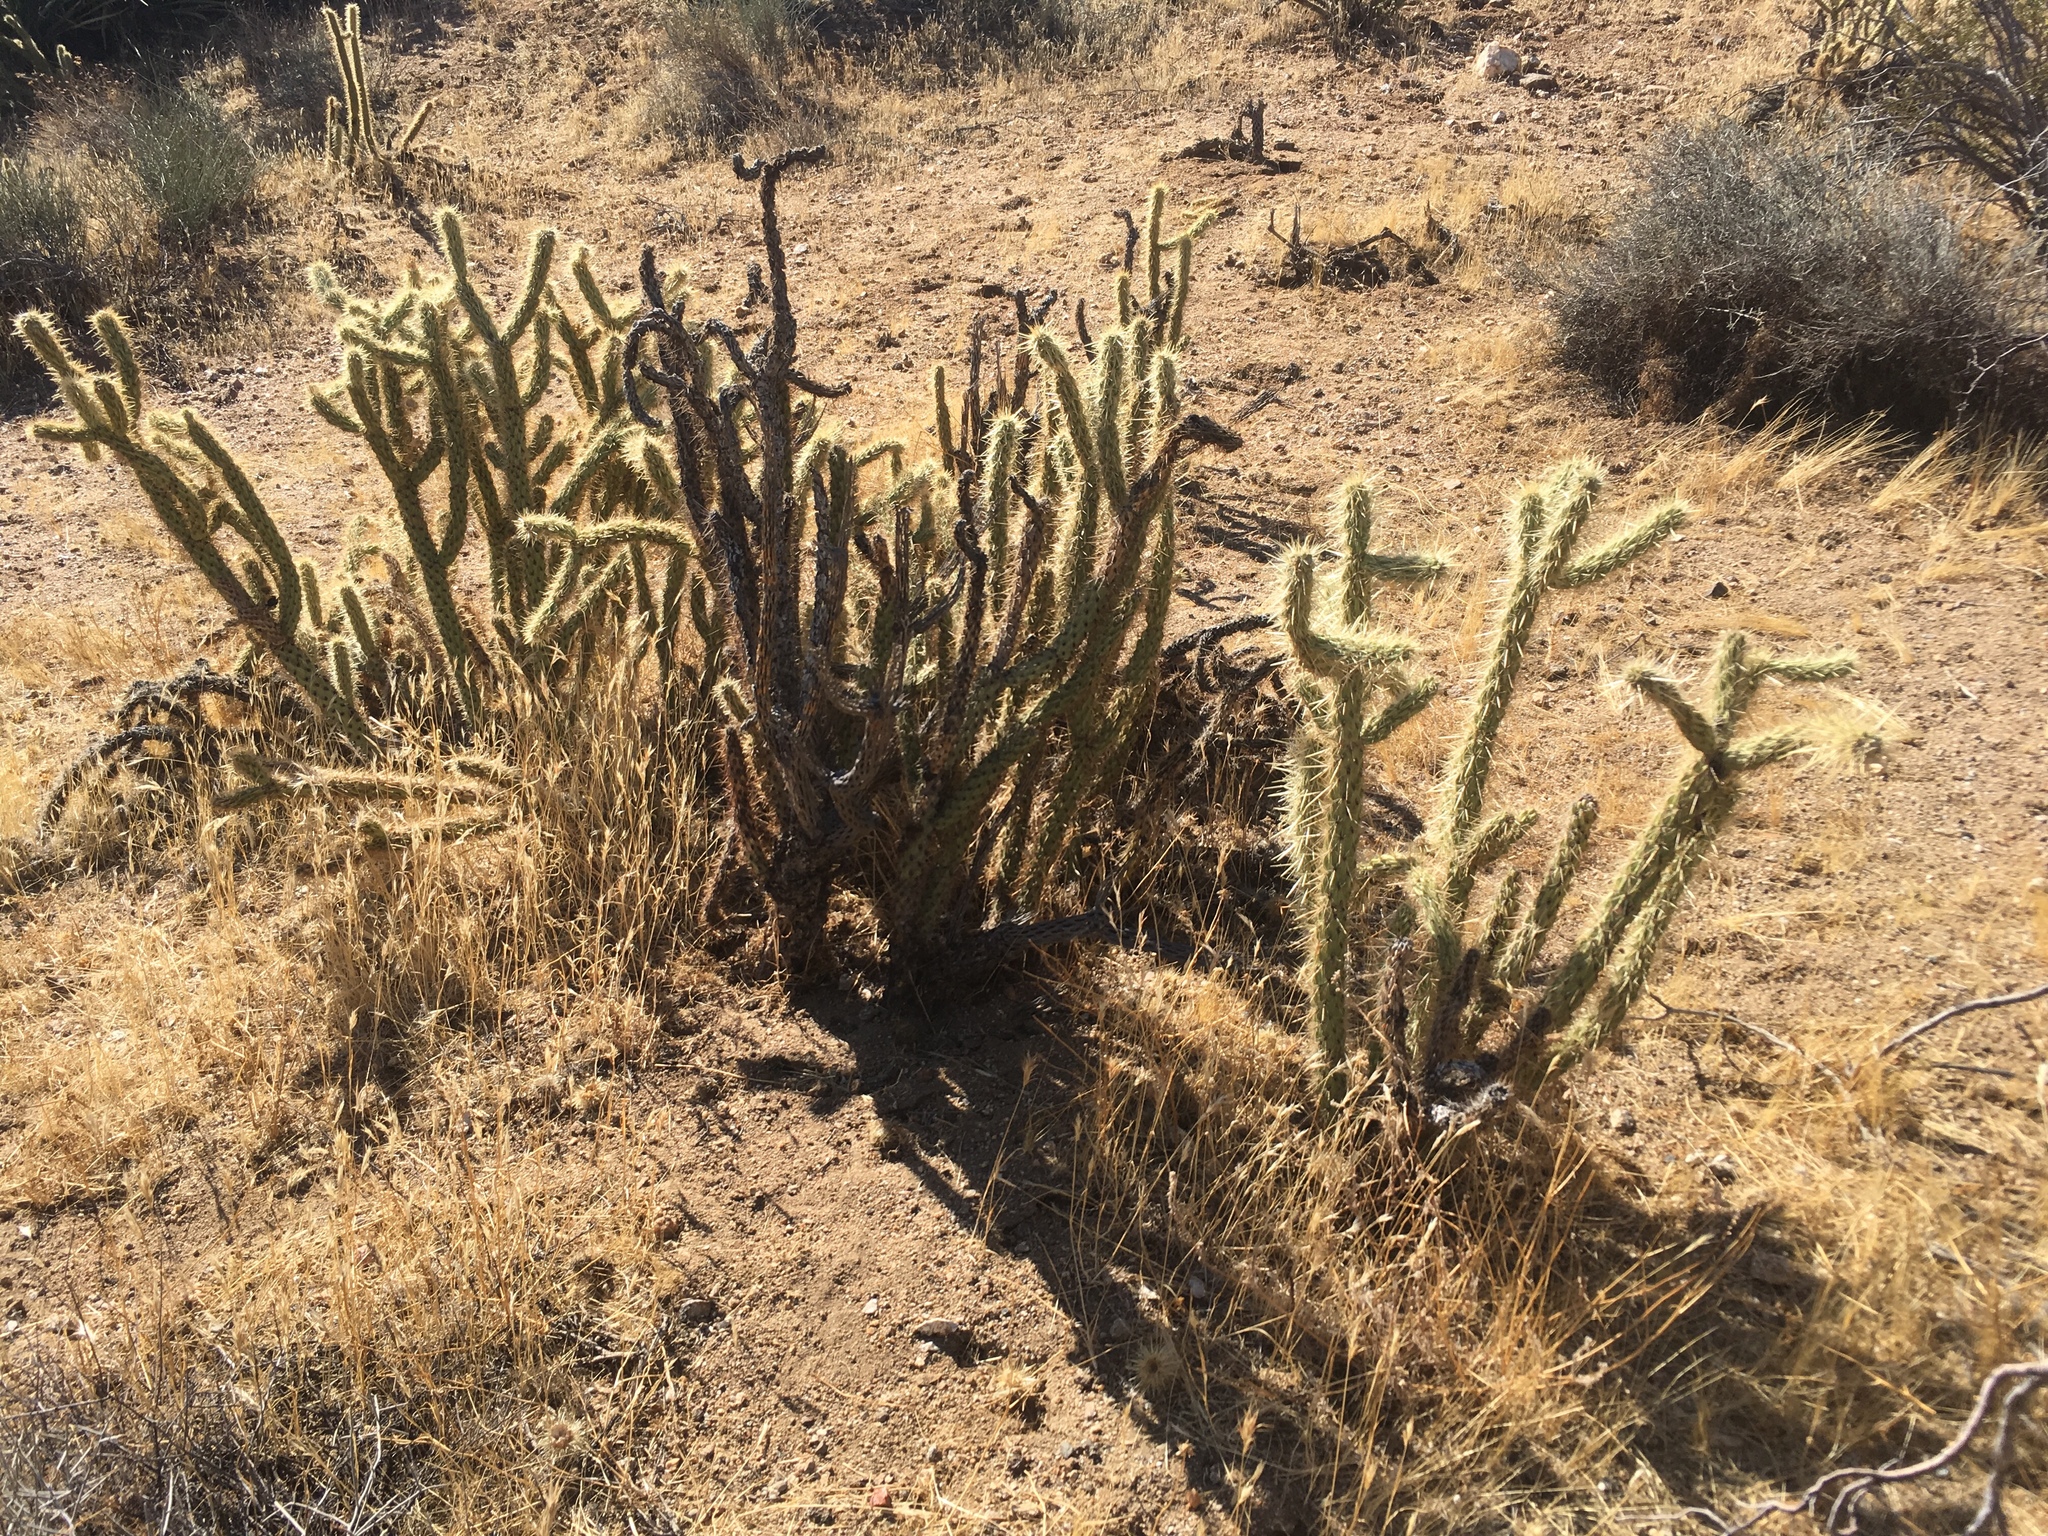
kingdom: Plantae
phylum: Tracheophyta
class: Magnoliopsida
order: Caryophyllales
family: Cactaceae
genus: Cylindropuntia
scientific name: Cylindropuntia ganderi
